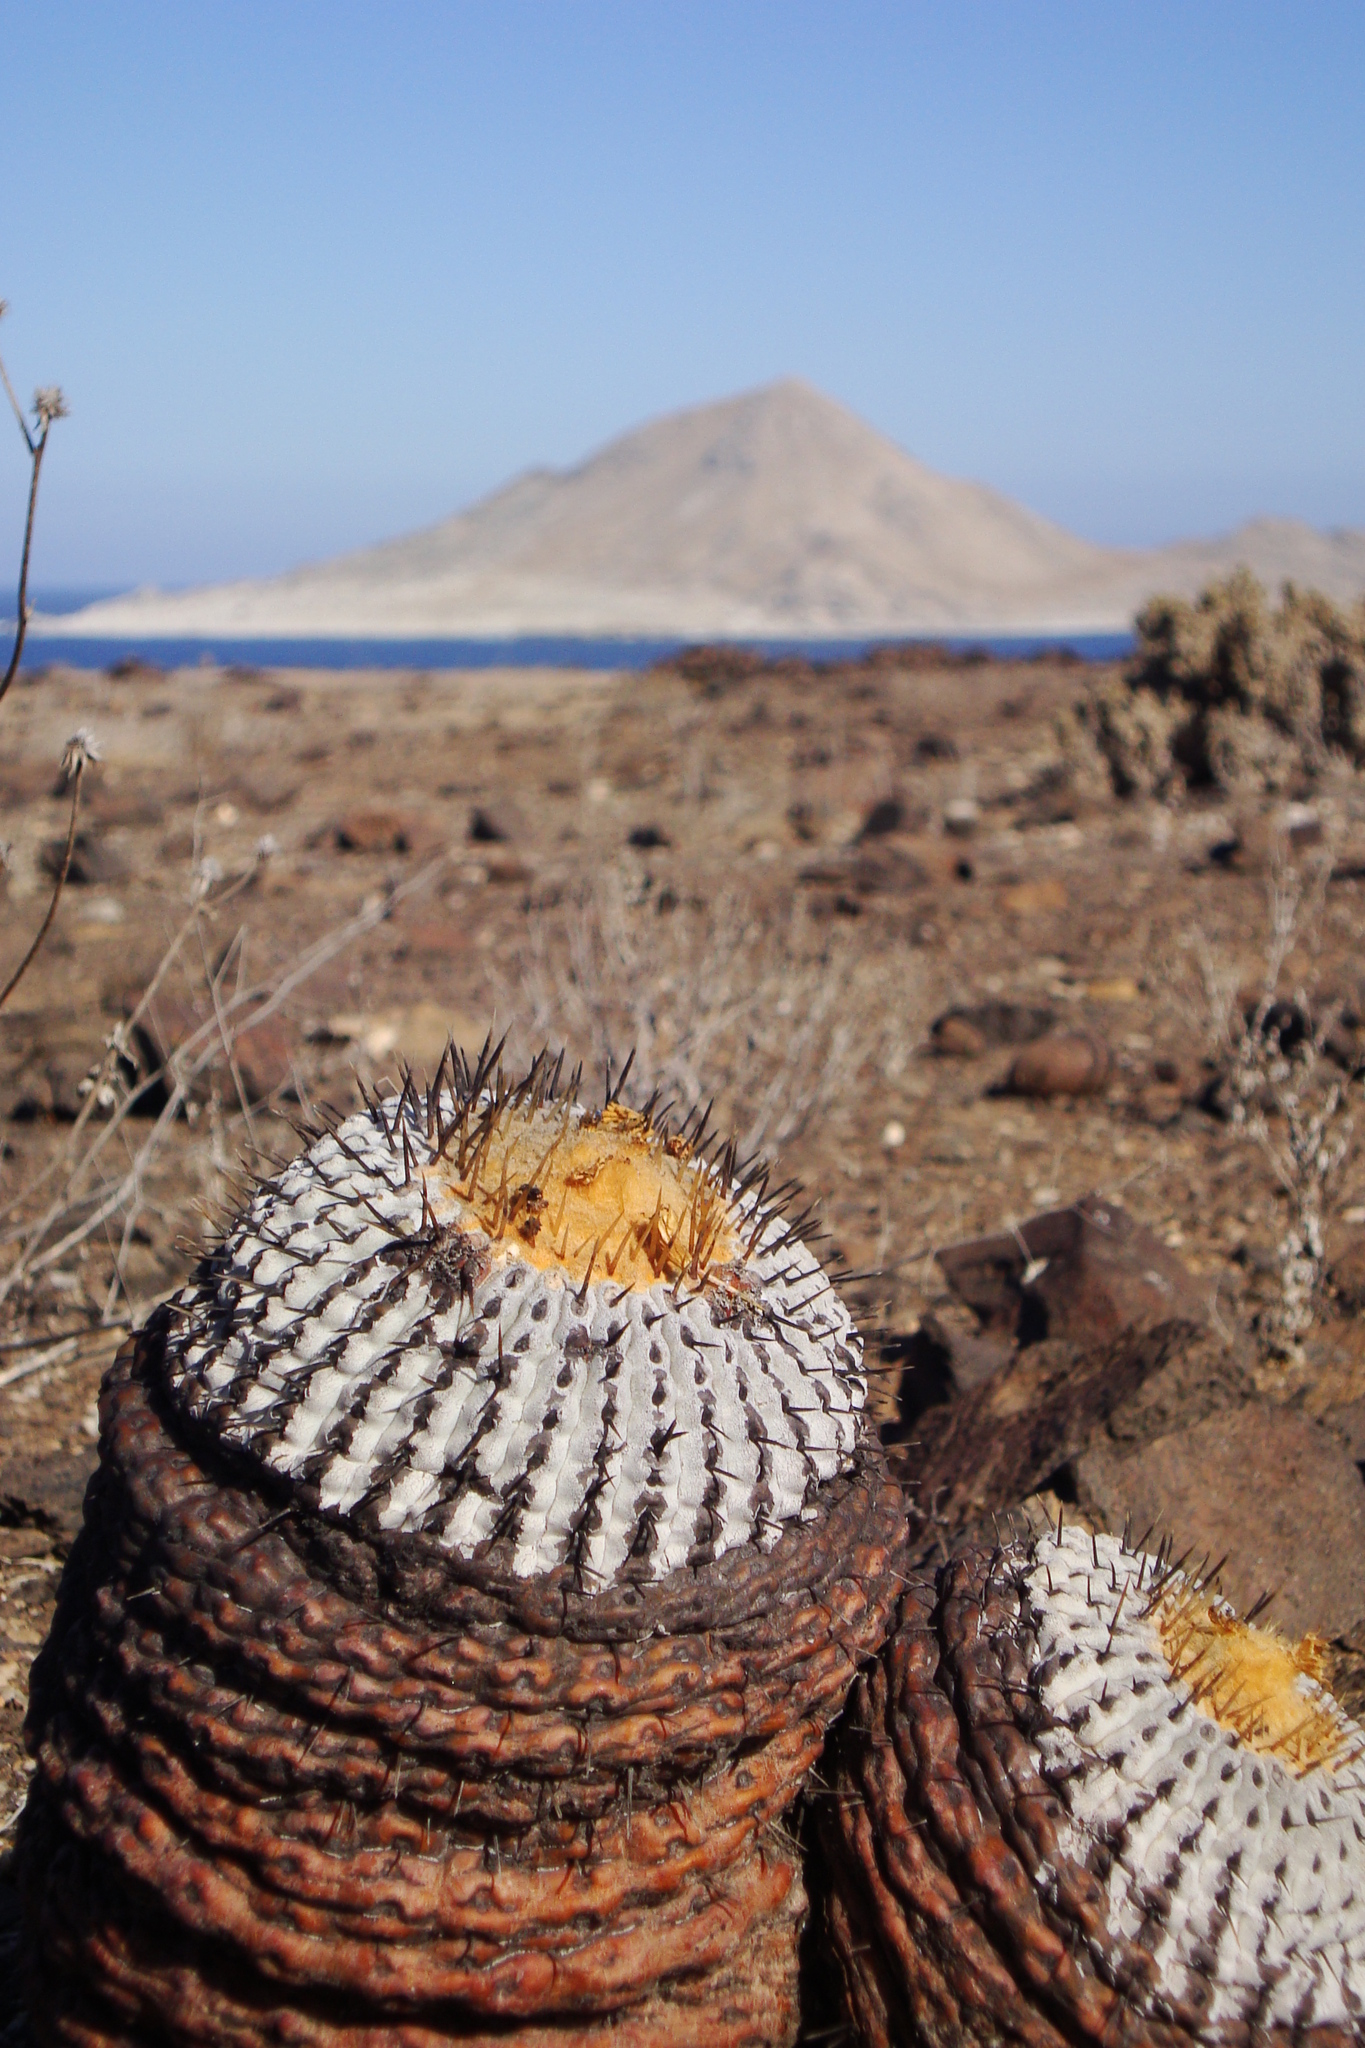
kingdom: Plantae
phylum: Tracheophyta
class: Magnoliopsida
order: Caryophyllales
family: Cactaceae
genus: Copiapoa
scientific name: Copiapoa cinerea
